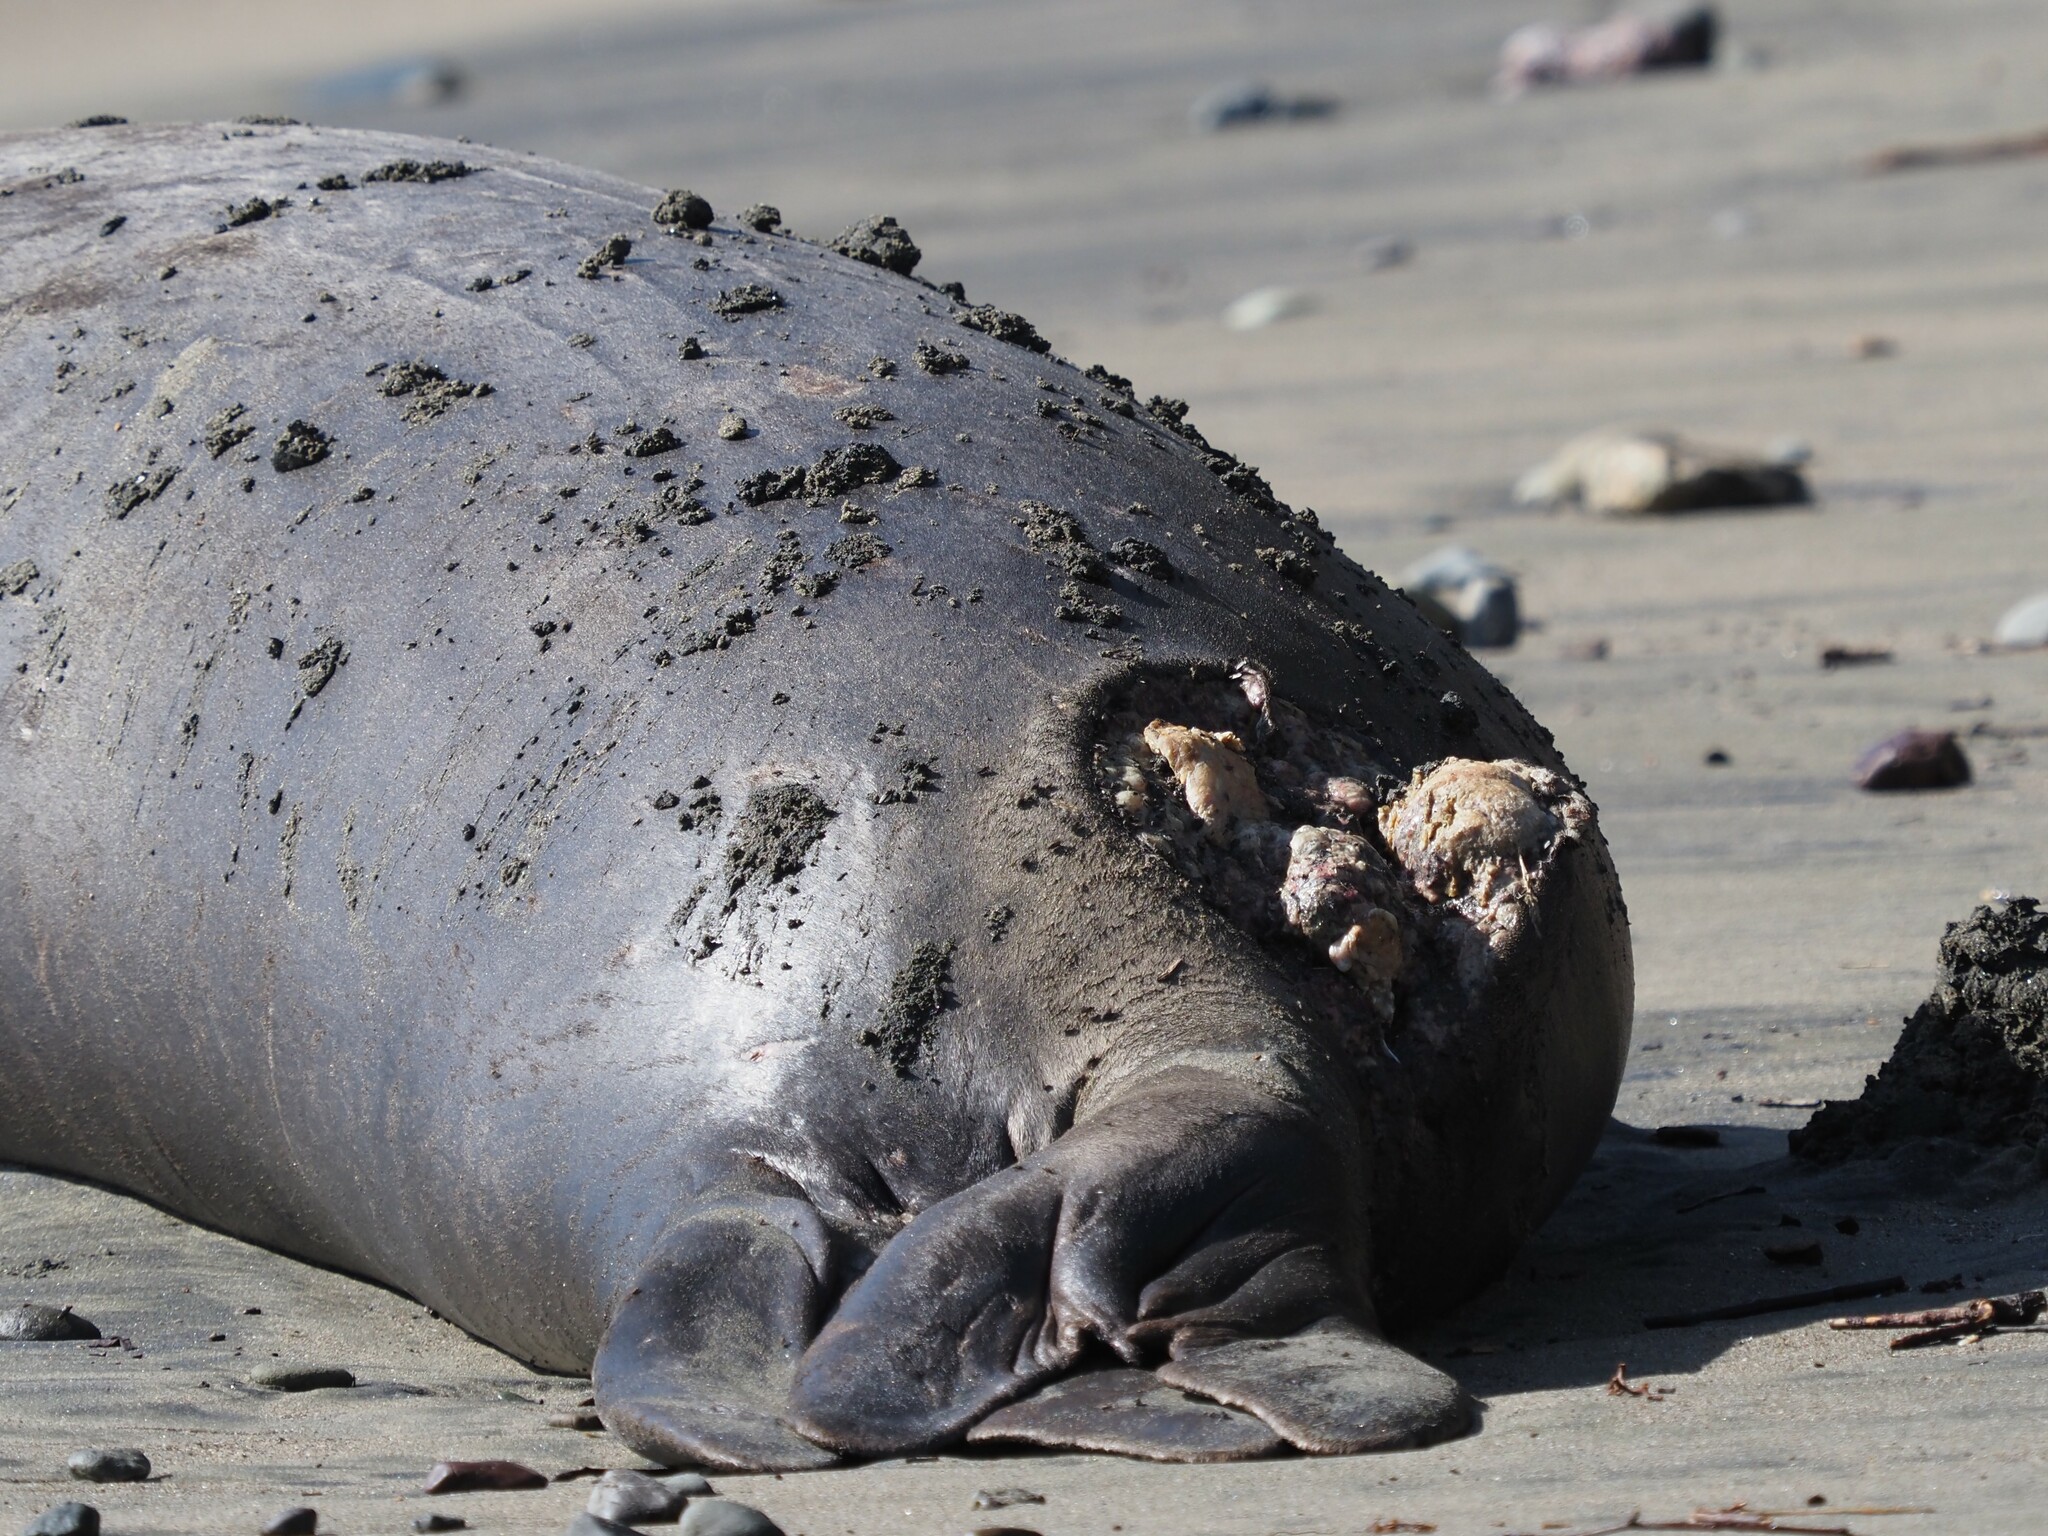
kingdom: Animalia
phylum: Chordata
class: Mammalia
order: Carnivora
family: Phocidae
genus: Mirounga
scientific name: Mirounga angustirostris
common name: Northern elephant seal
